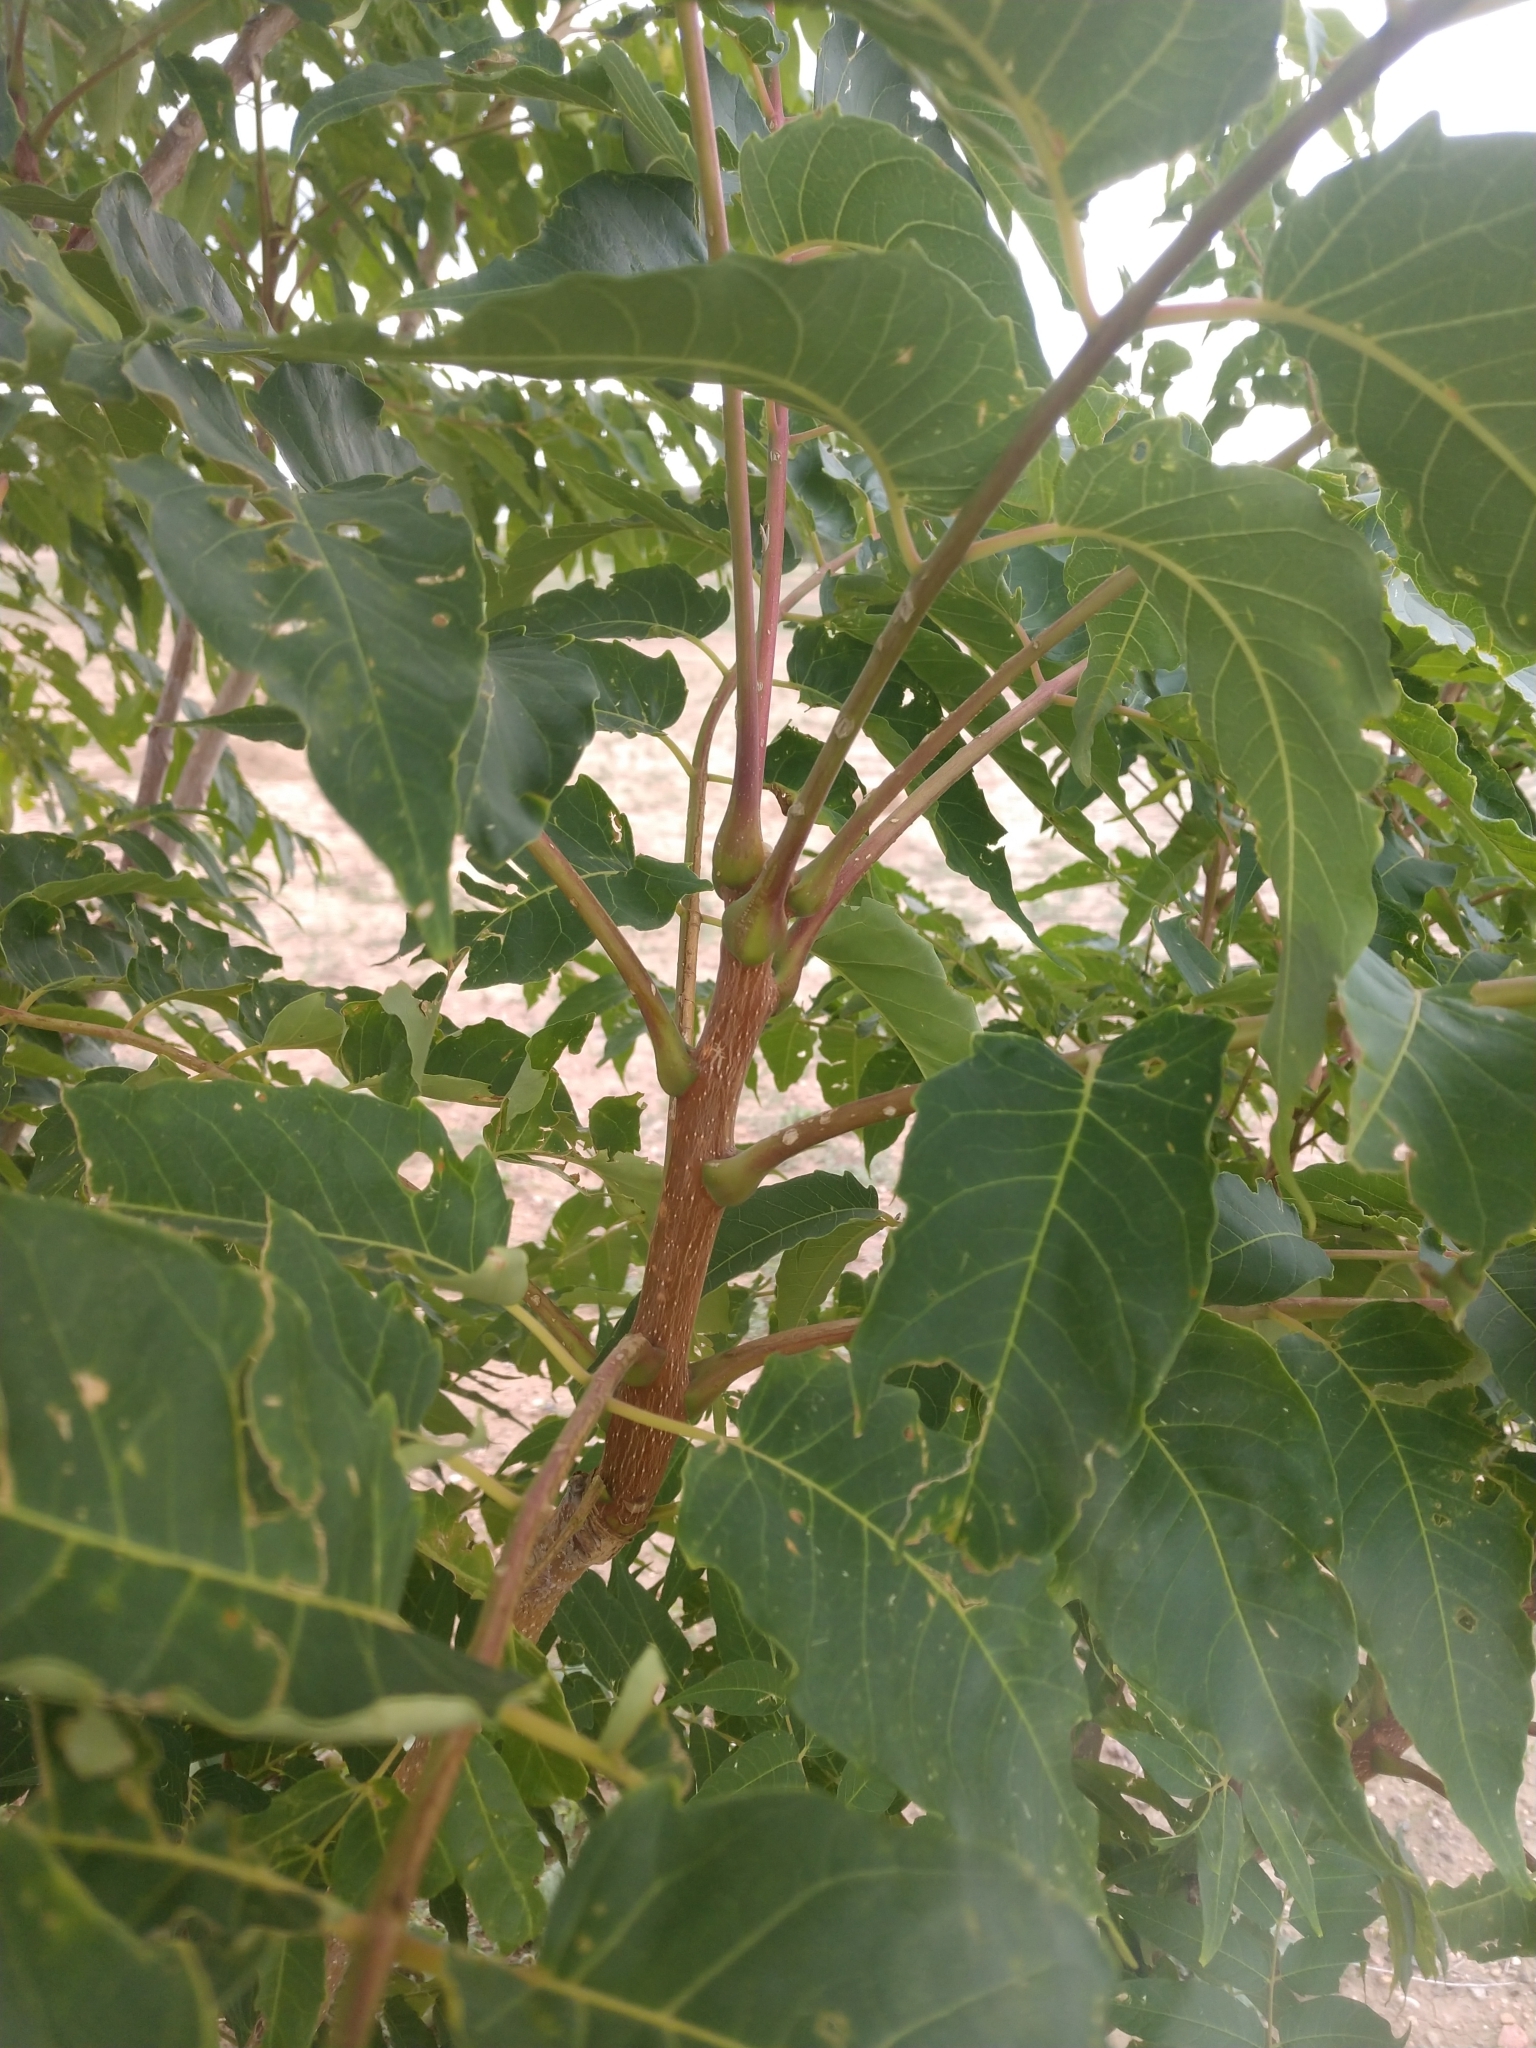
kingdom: Plantae
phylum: Tracheophyta
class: Magnoliopsida
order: Sapindales
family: Simaroubaceae
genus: Ailanthus
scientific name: Ailanthus altissima
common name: Tree-of-heaven
